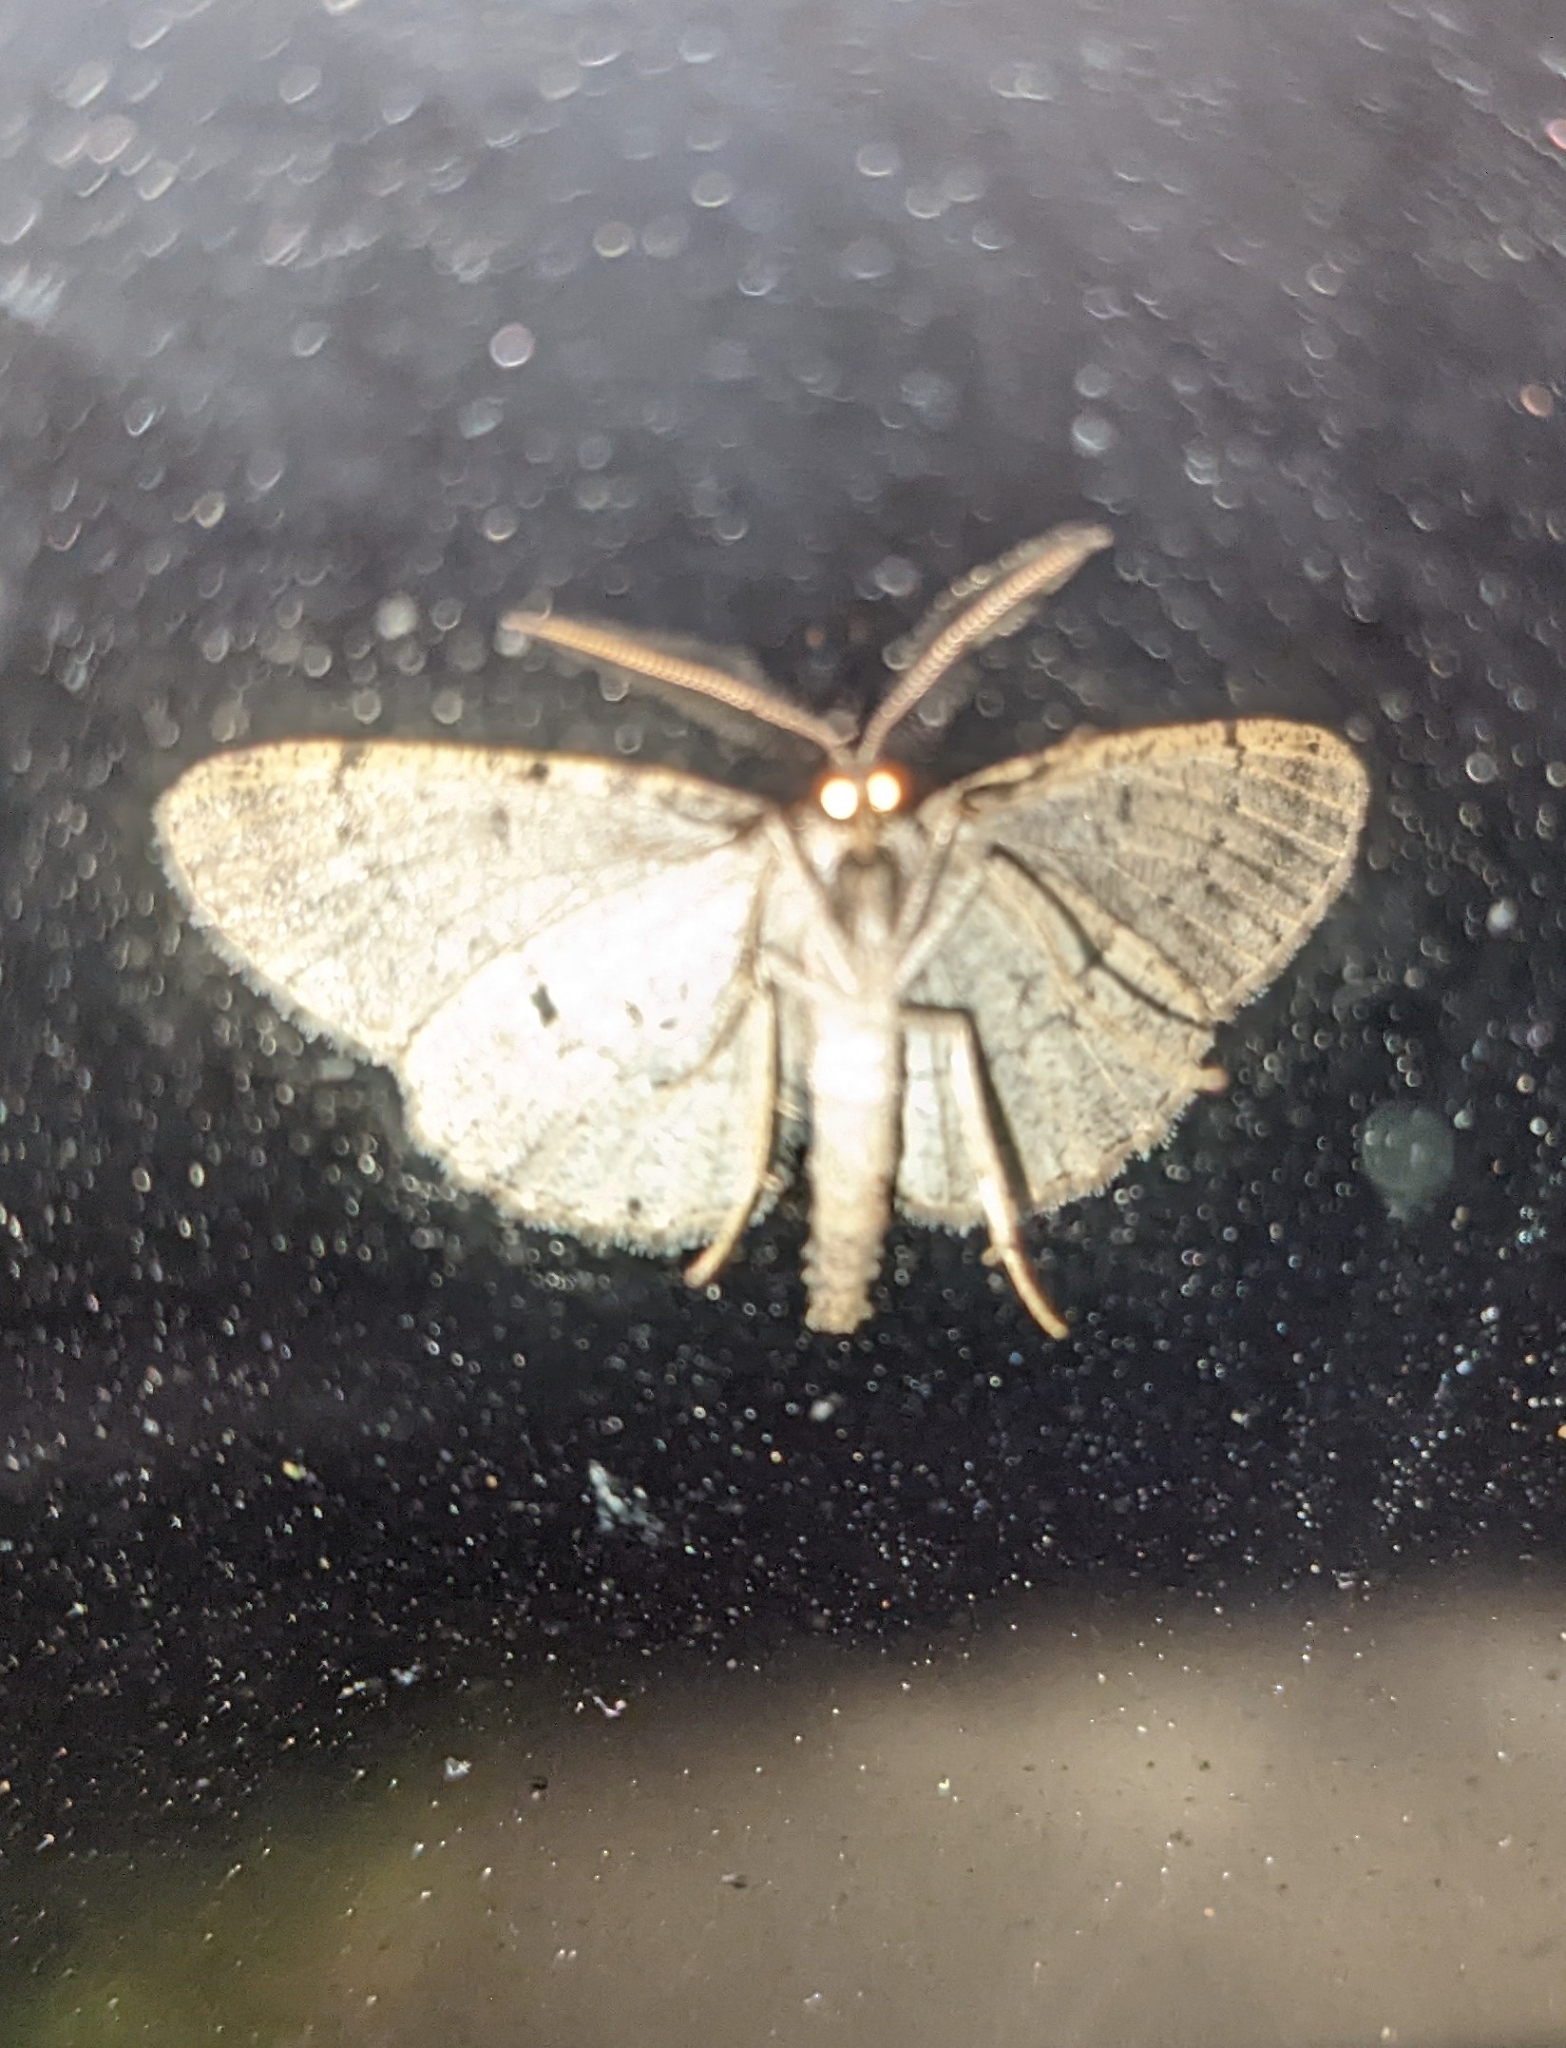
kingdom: Animalia
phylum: Arthropoda
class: Insecta
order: Lepidoptera
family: Geometridae
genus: Aethalura
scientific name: Aethalura intertexta
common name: Four-barred gray
